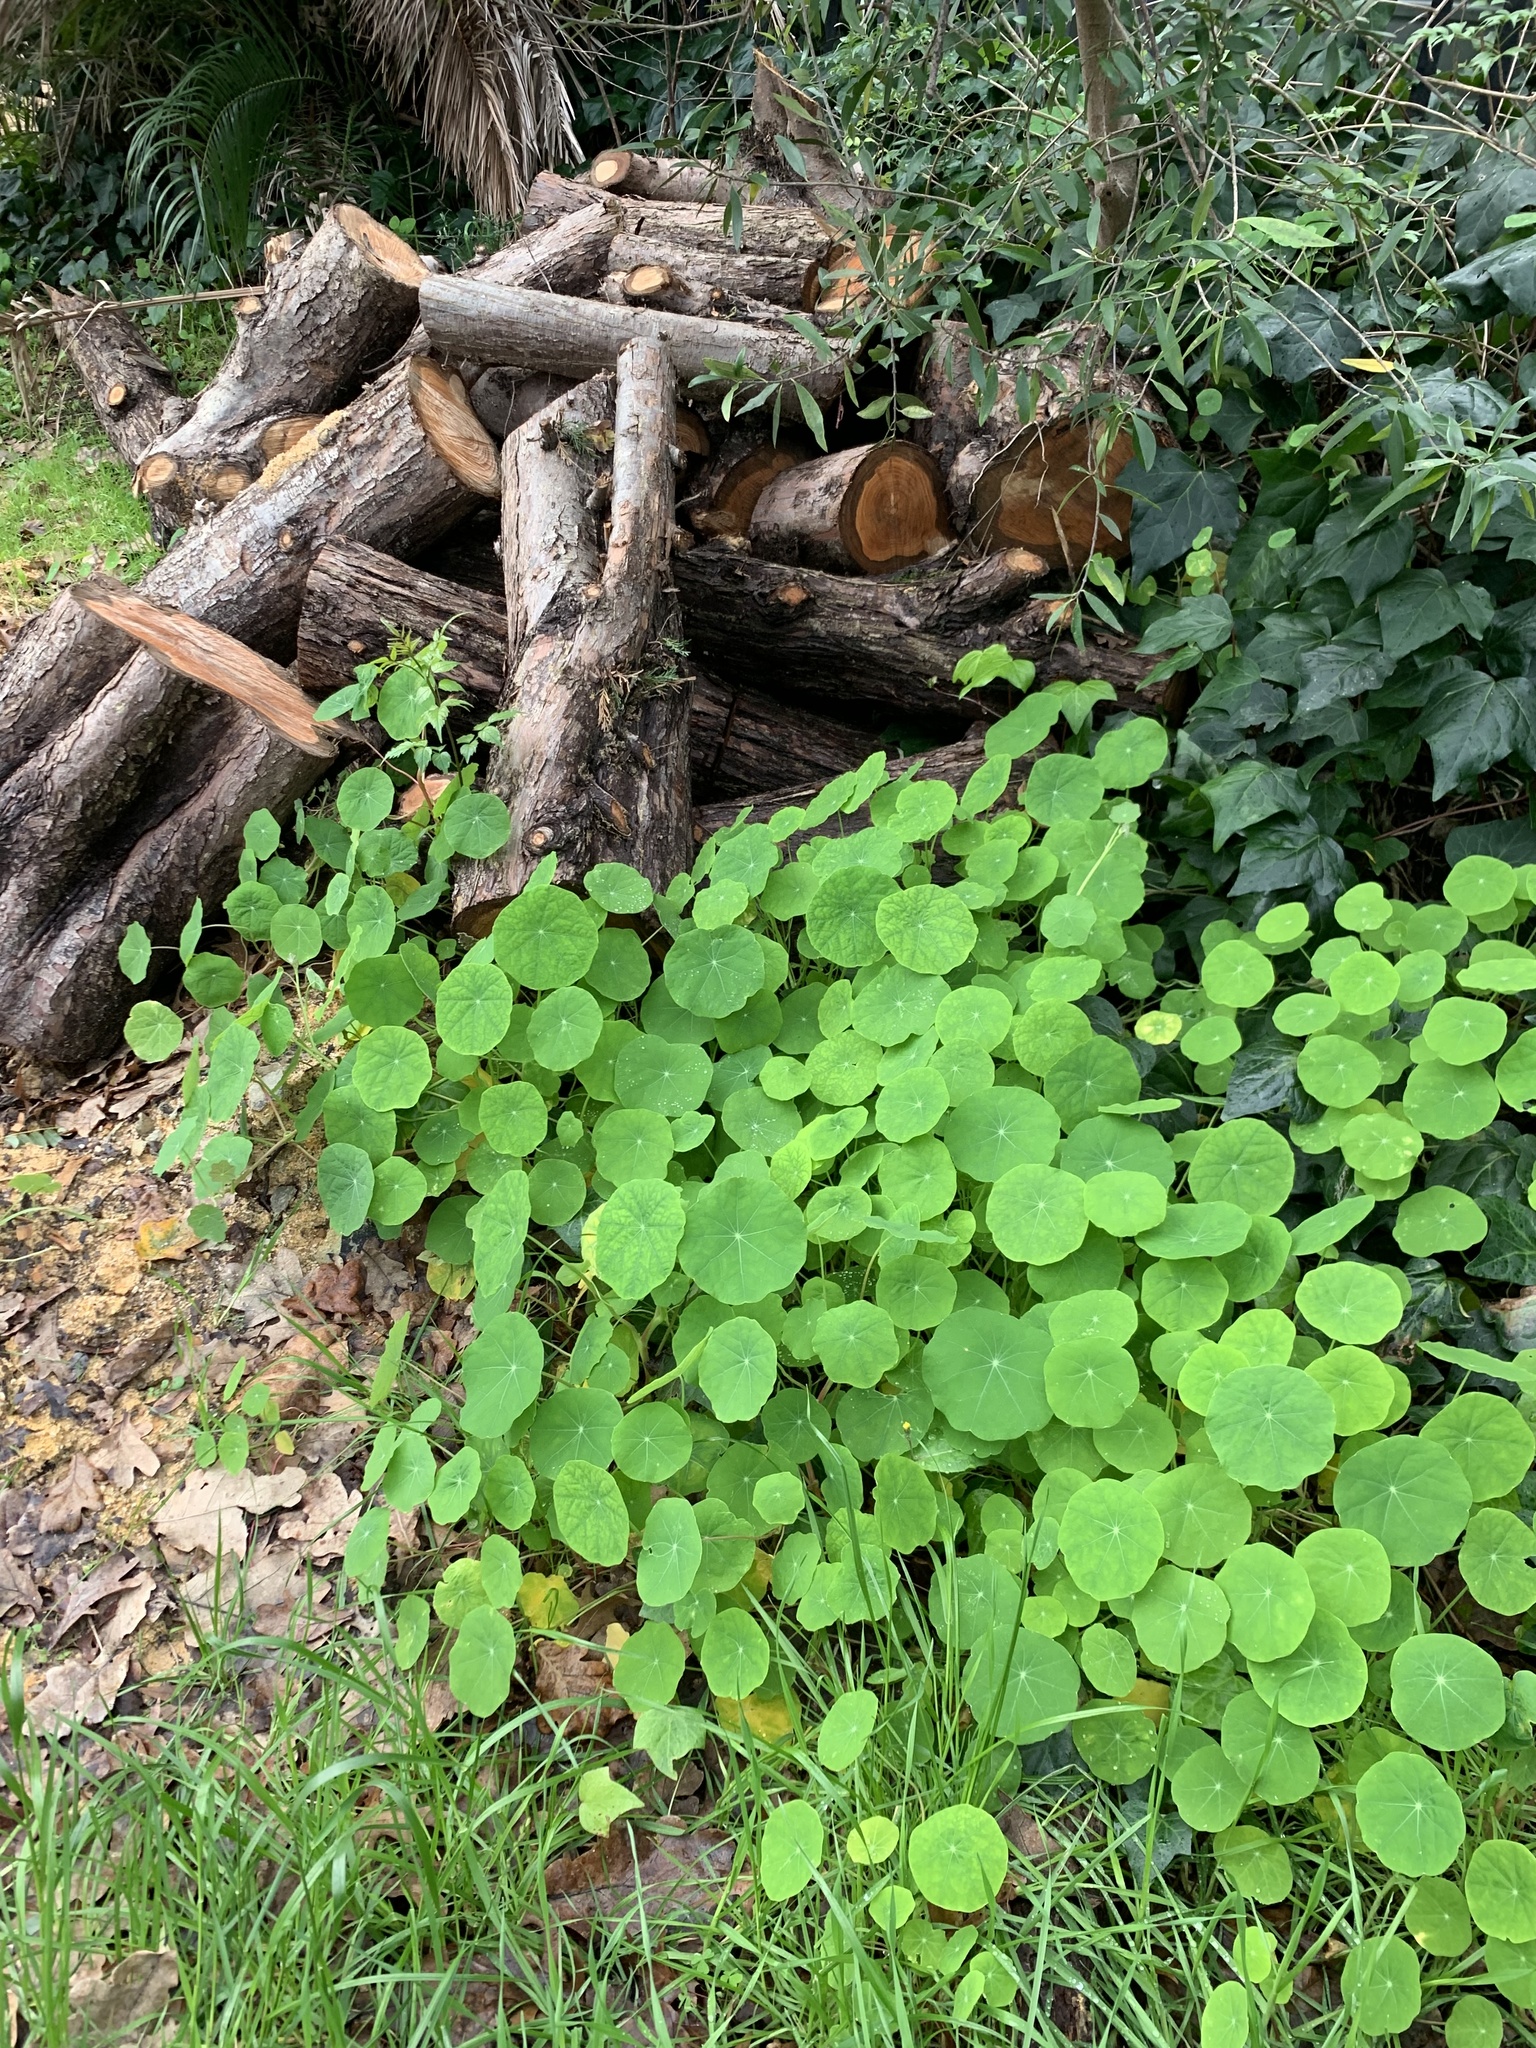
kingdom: Plantae
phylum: Tracheophyta
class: Magnoliopsida
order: Brassicales
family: Tropaeolaceae
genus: Tropaeolum
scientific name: Tropaeolum majus
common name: Nasturtium
